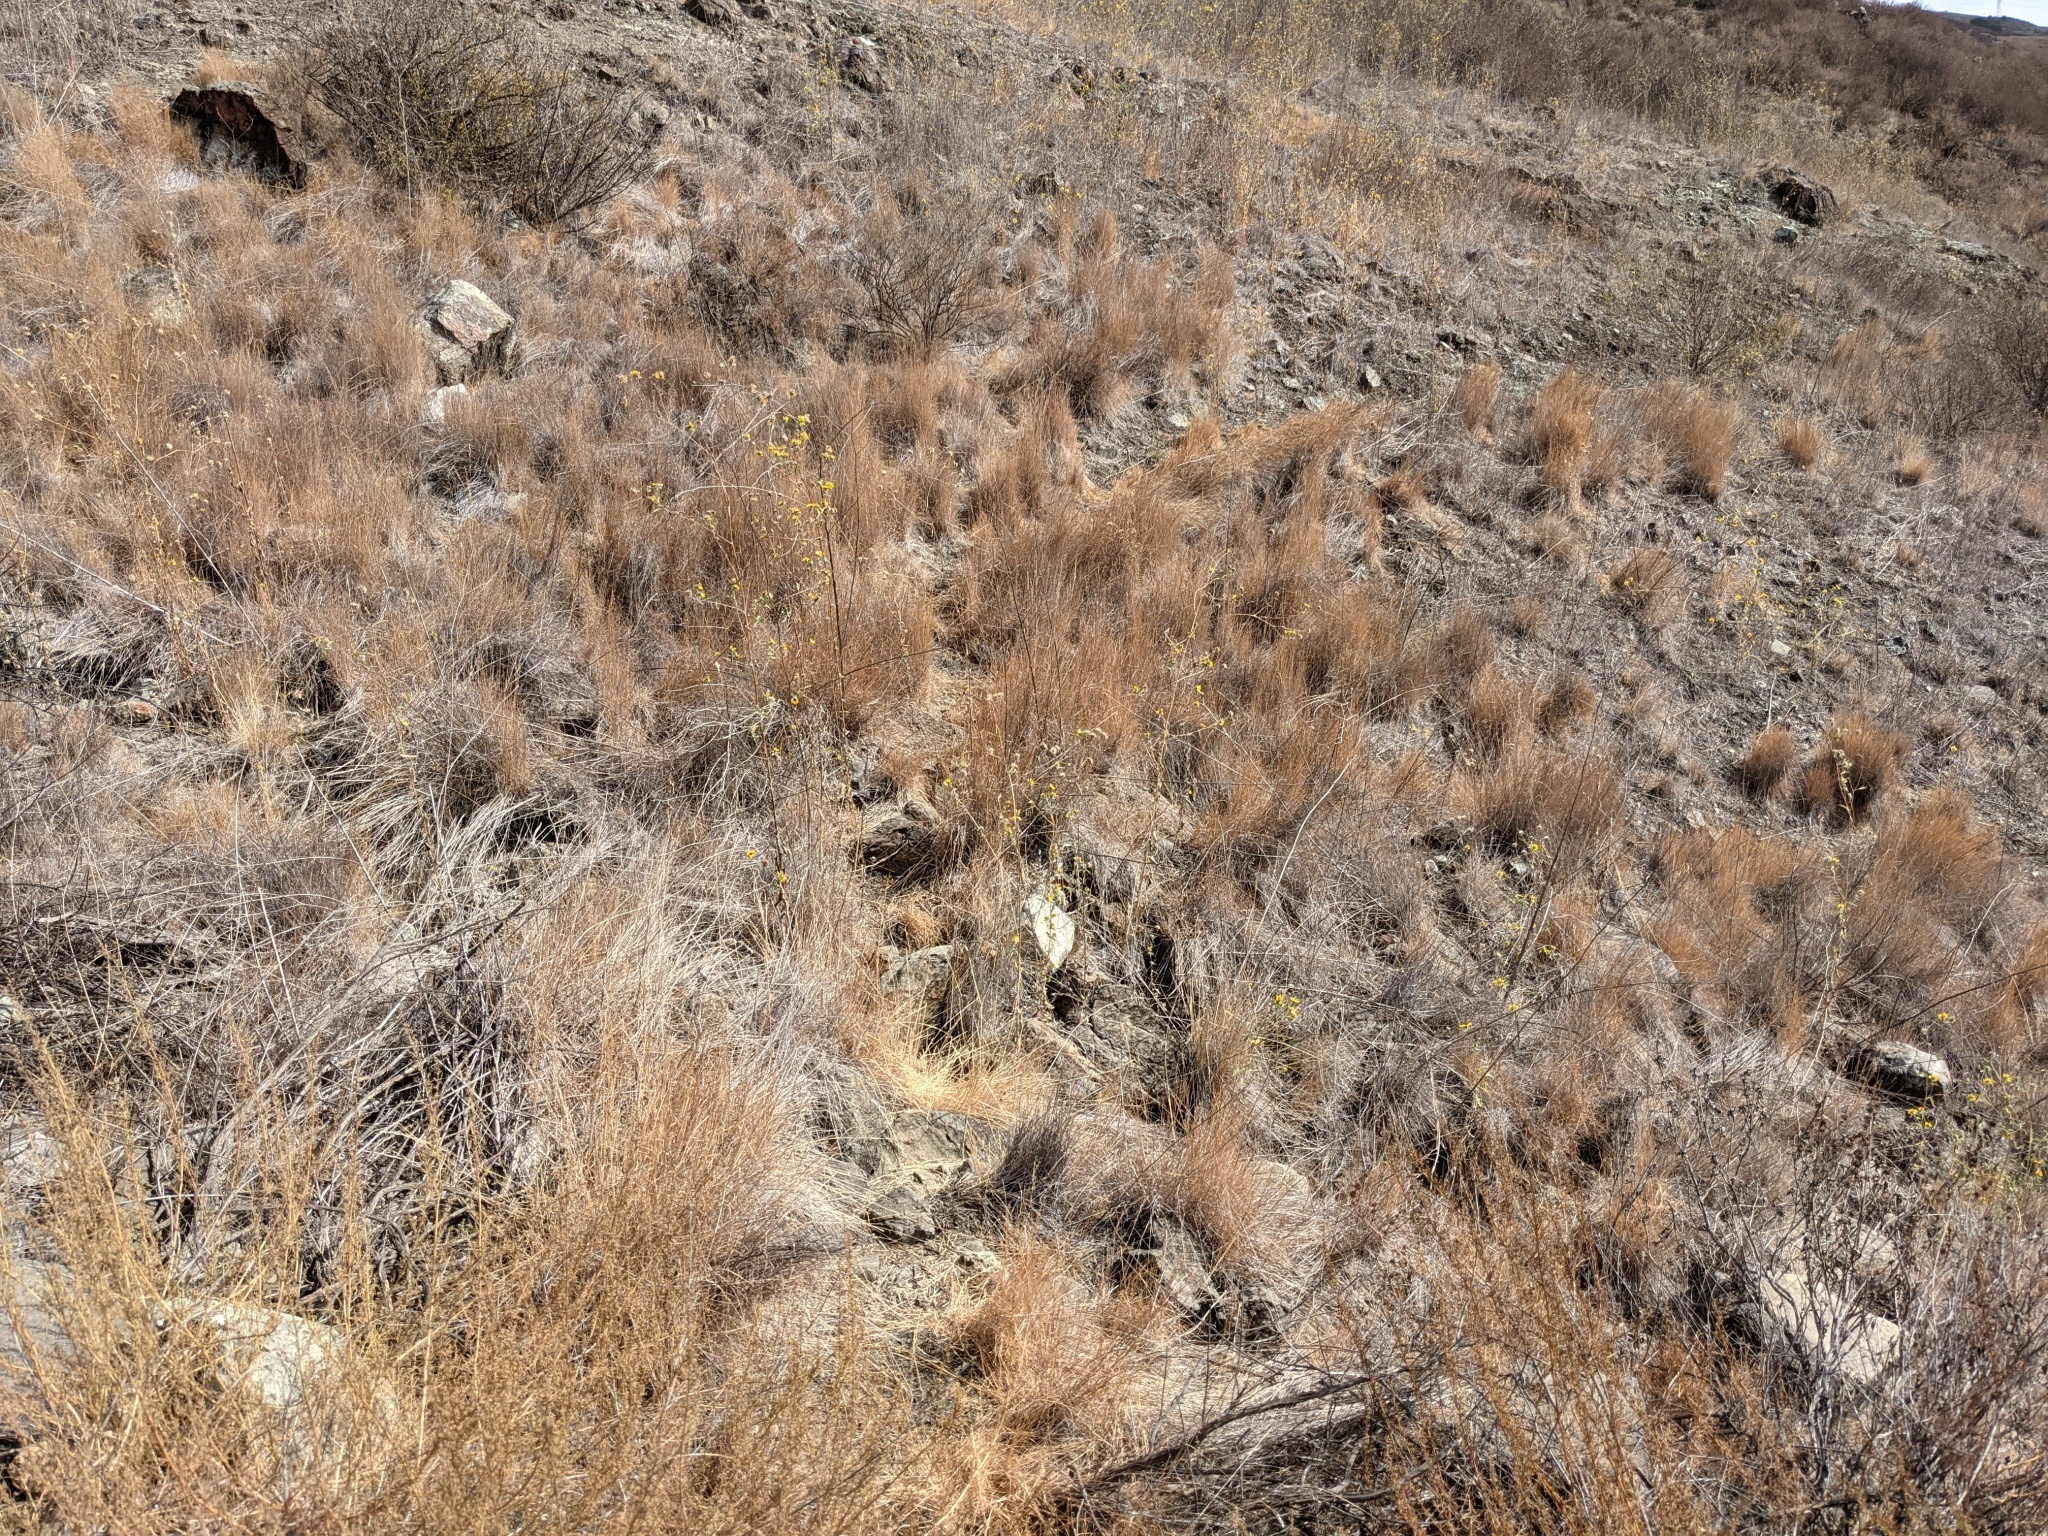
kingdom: Plantae
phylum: Tracheophyta
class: Magnoliopsida
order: Asterales
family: Asteraceae
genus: Helianthus
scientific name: Helianthus exilis
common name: Serpentine sunflower
